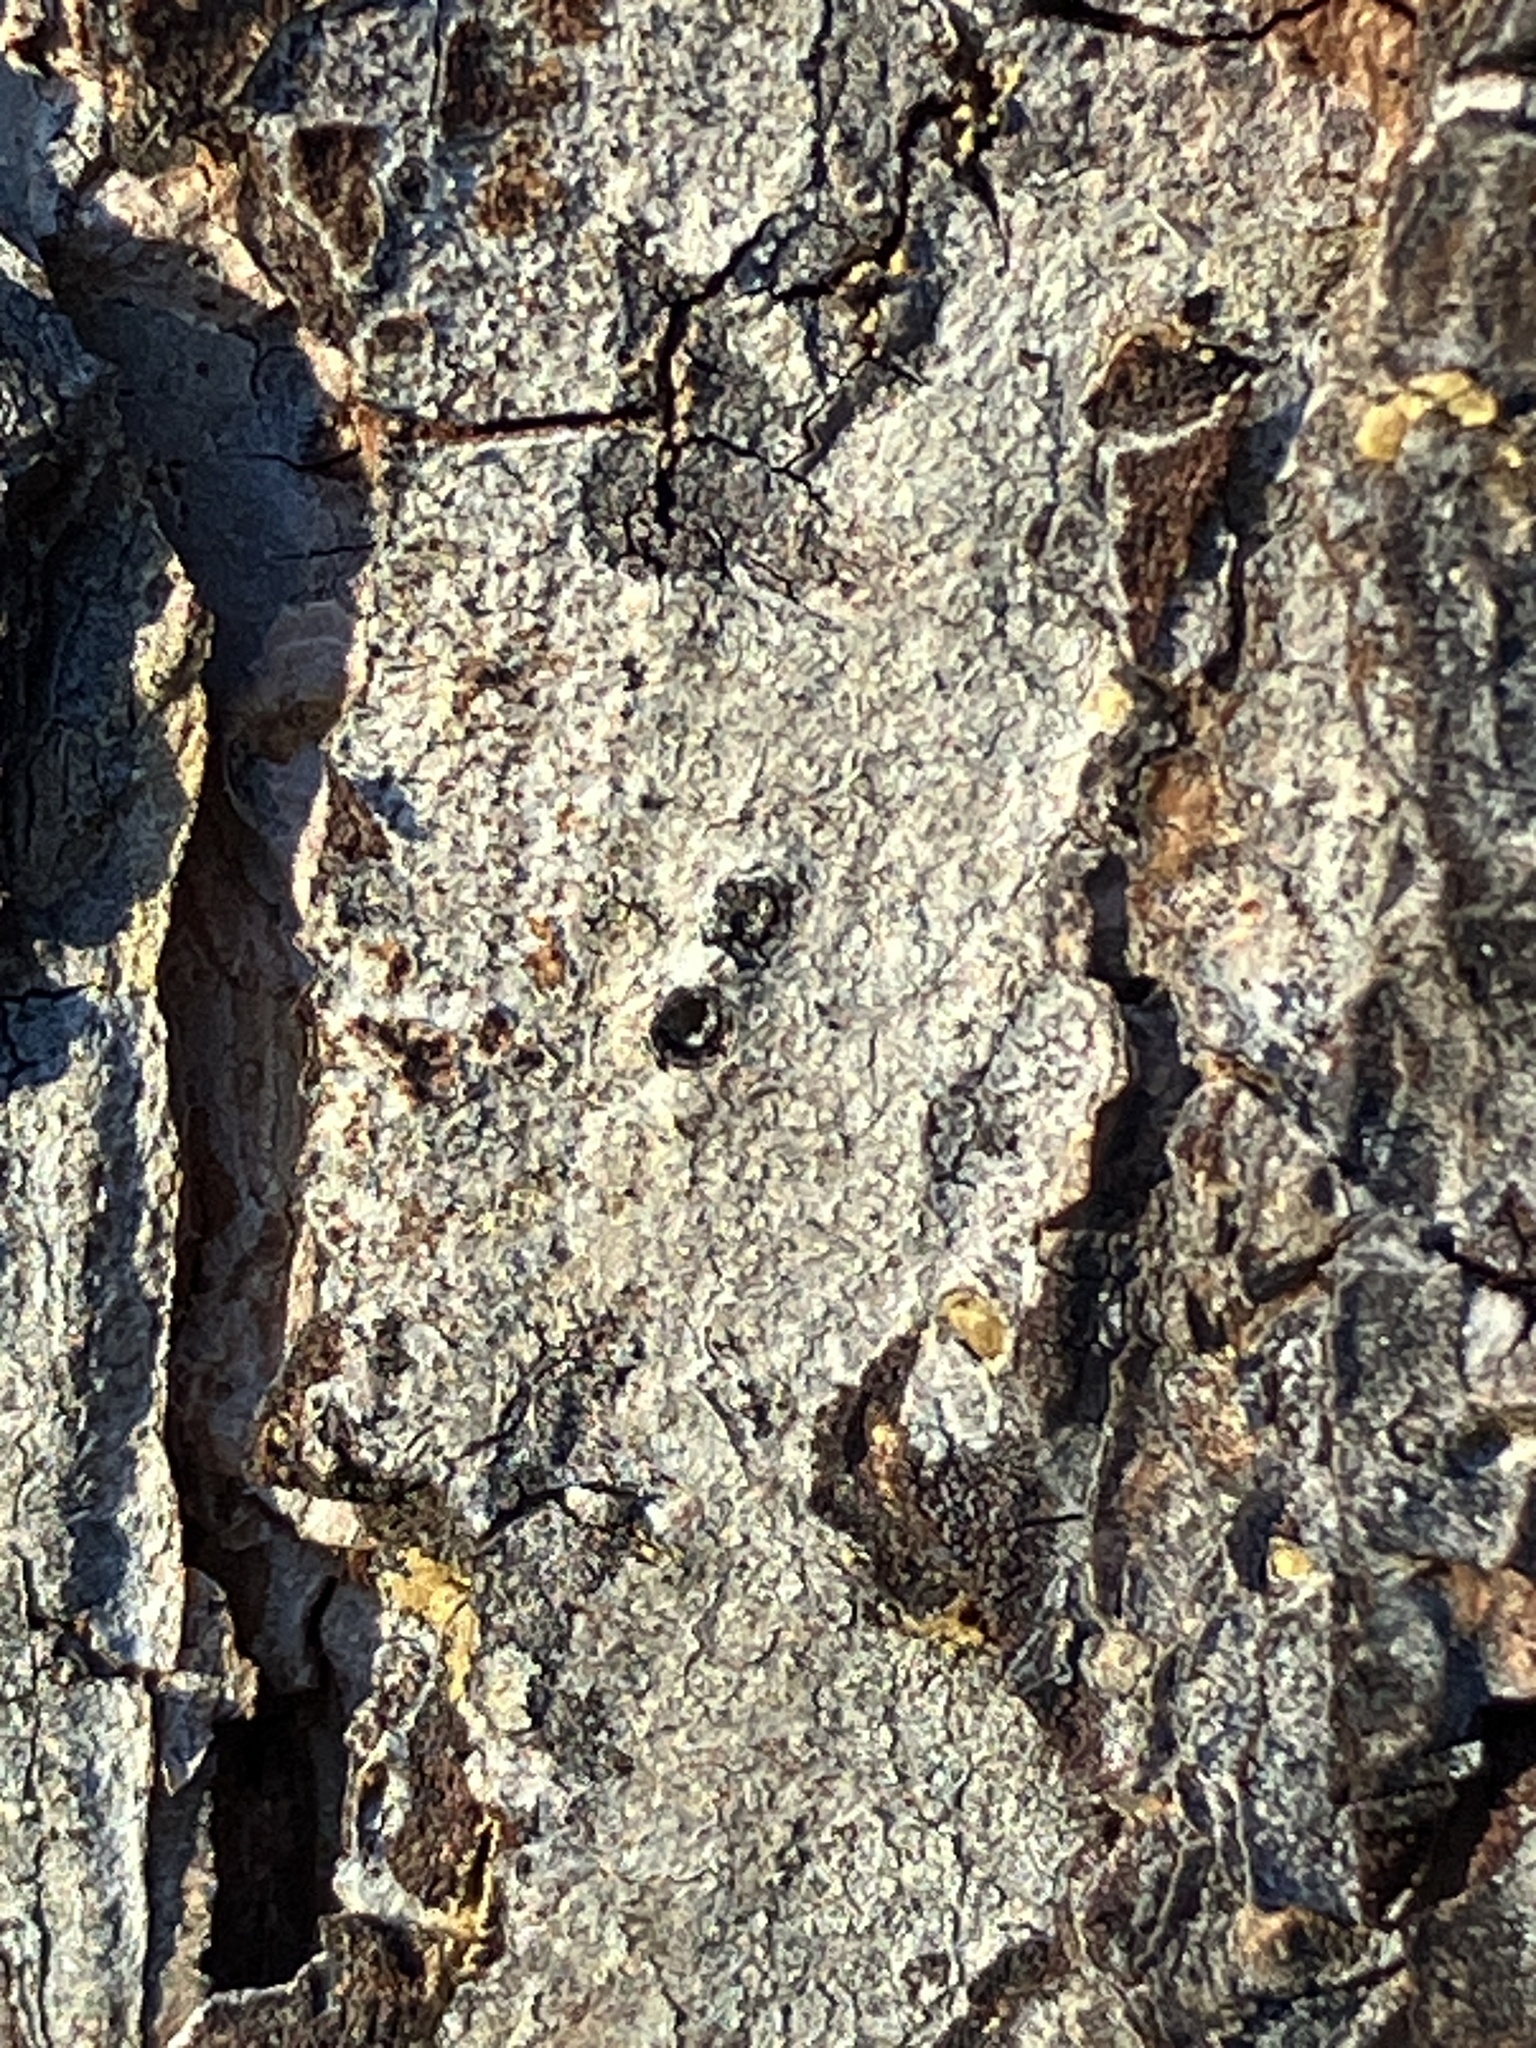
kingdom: Plantae
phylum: Tracheophyta
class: Pinopsida
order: Pinales
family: Pinaceae
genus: Pinus
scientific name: Pinus echinata
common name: Shortleaf pine
